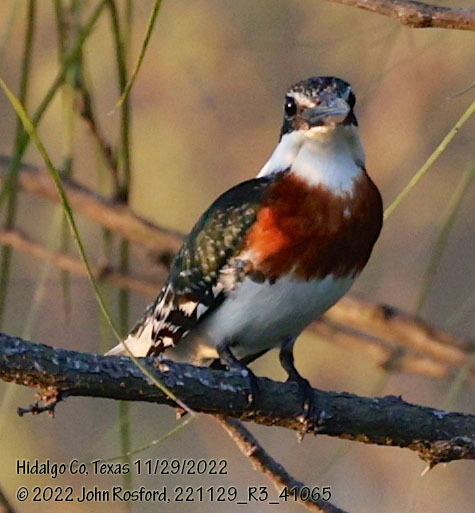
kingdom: Animalia
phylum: Chordata
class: Aves
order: Coraciiformes
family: Alcedinidae
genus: Chloroceryle
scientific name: Chloroceryle americana
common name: Green kingfisher
